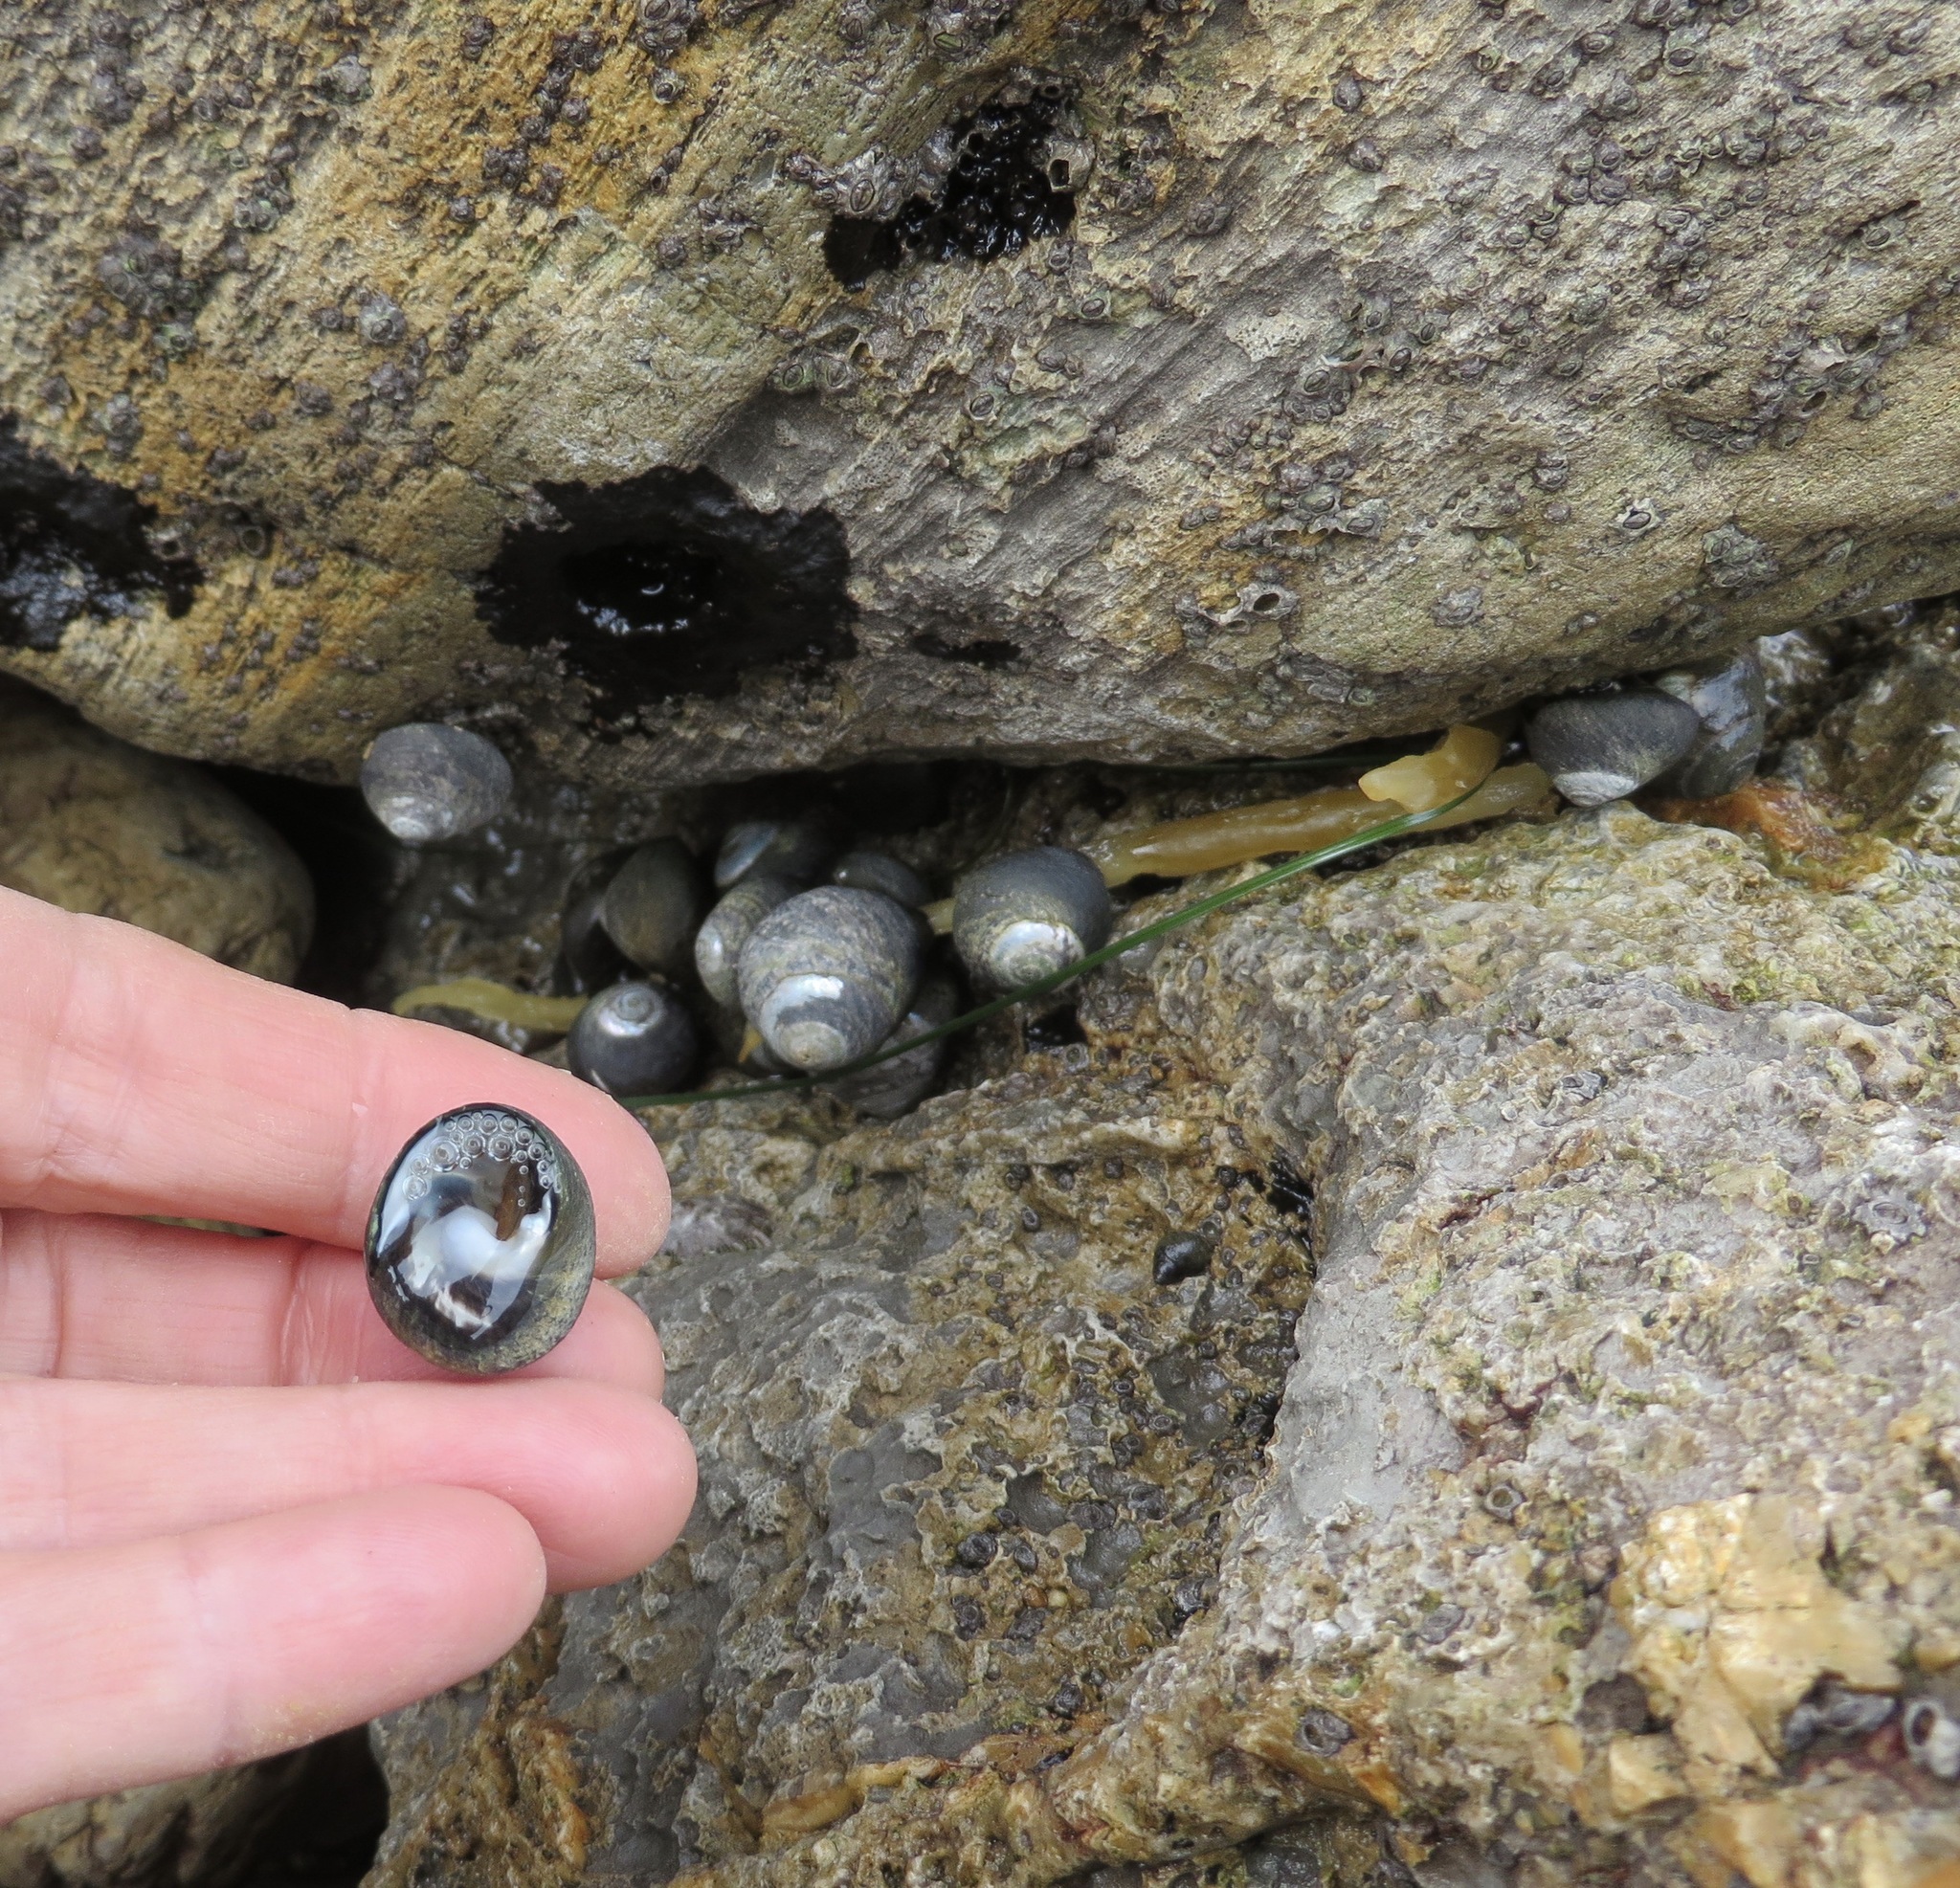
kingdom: Animalia
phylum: Mollusca
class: Gastropoda
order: Trochida
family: Tegulidae
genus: Tegula
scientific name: Tegula funebralis
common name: Black tegula
